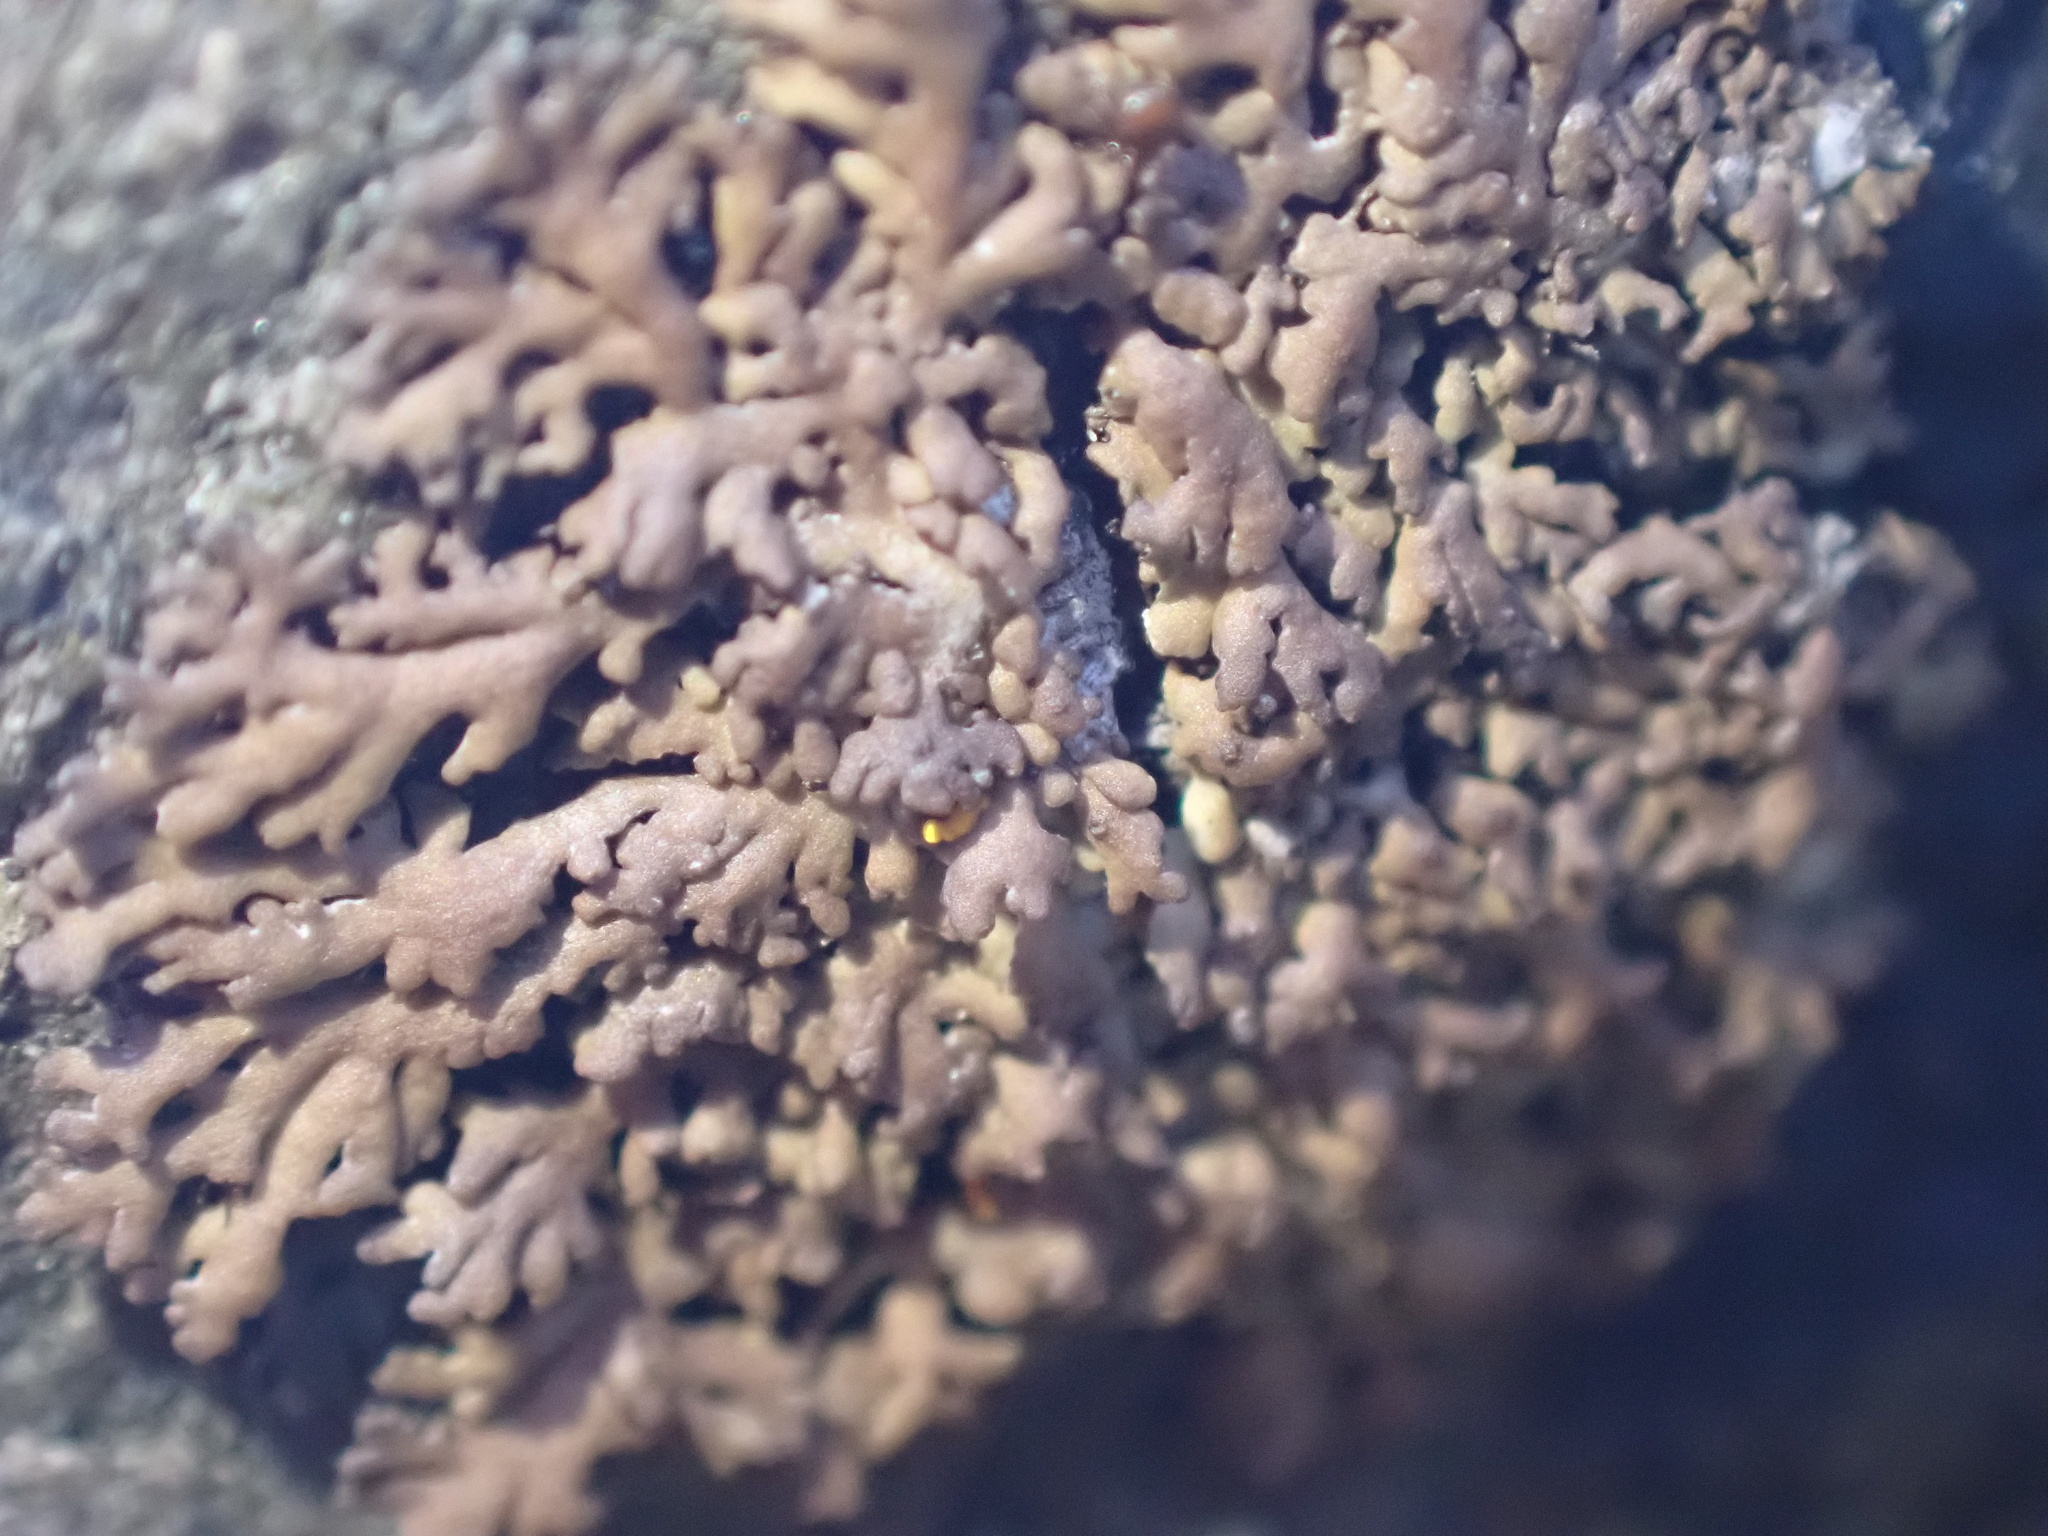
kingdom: Fungi
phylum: Ascomycota
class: Lecanoromycetes
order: Caliciales
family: Physciaceae
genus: Kurokawia
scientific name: Kurokawia runcinata
